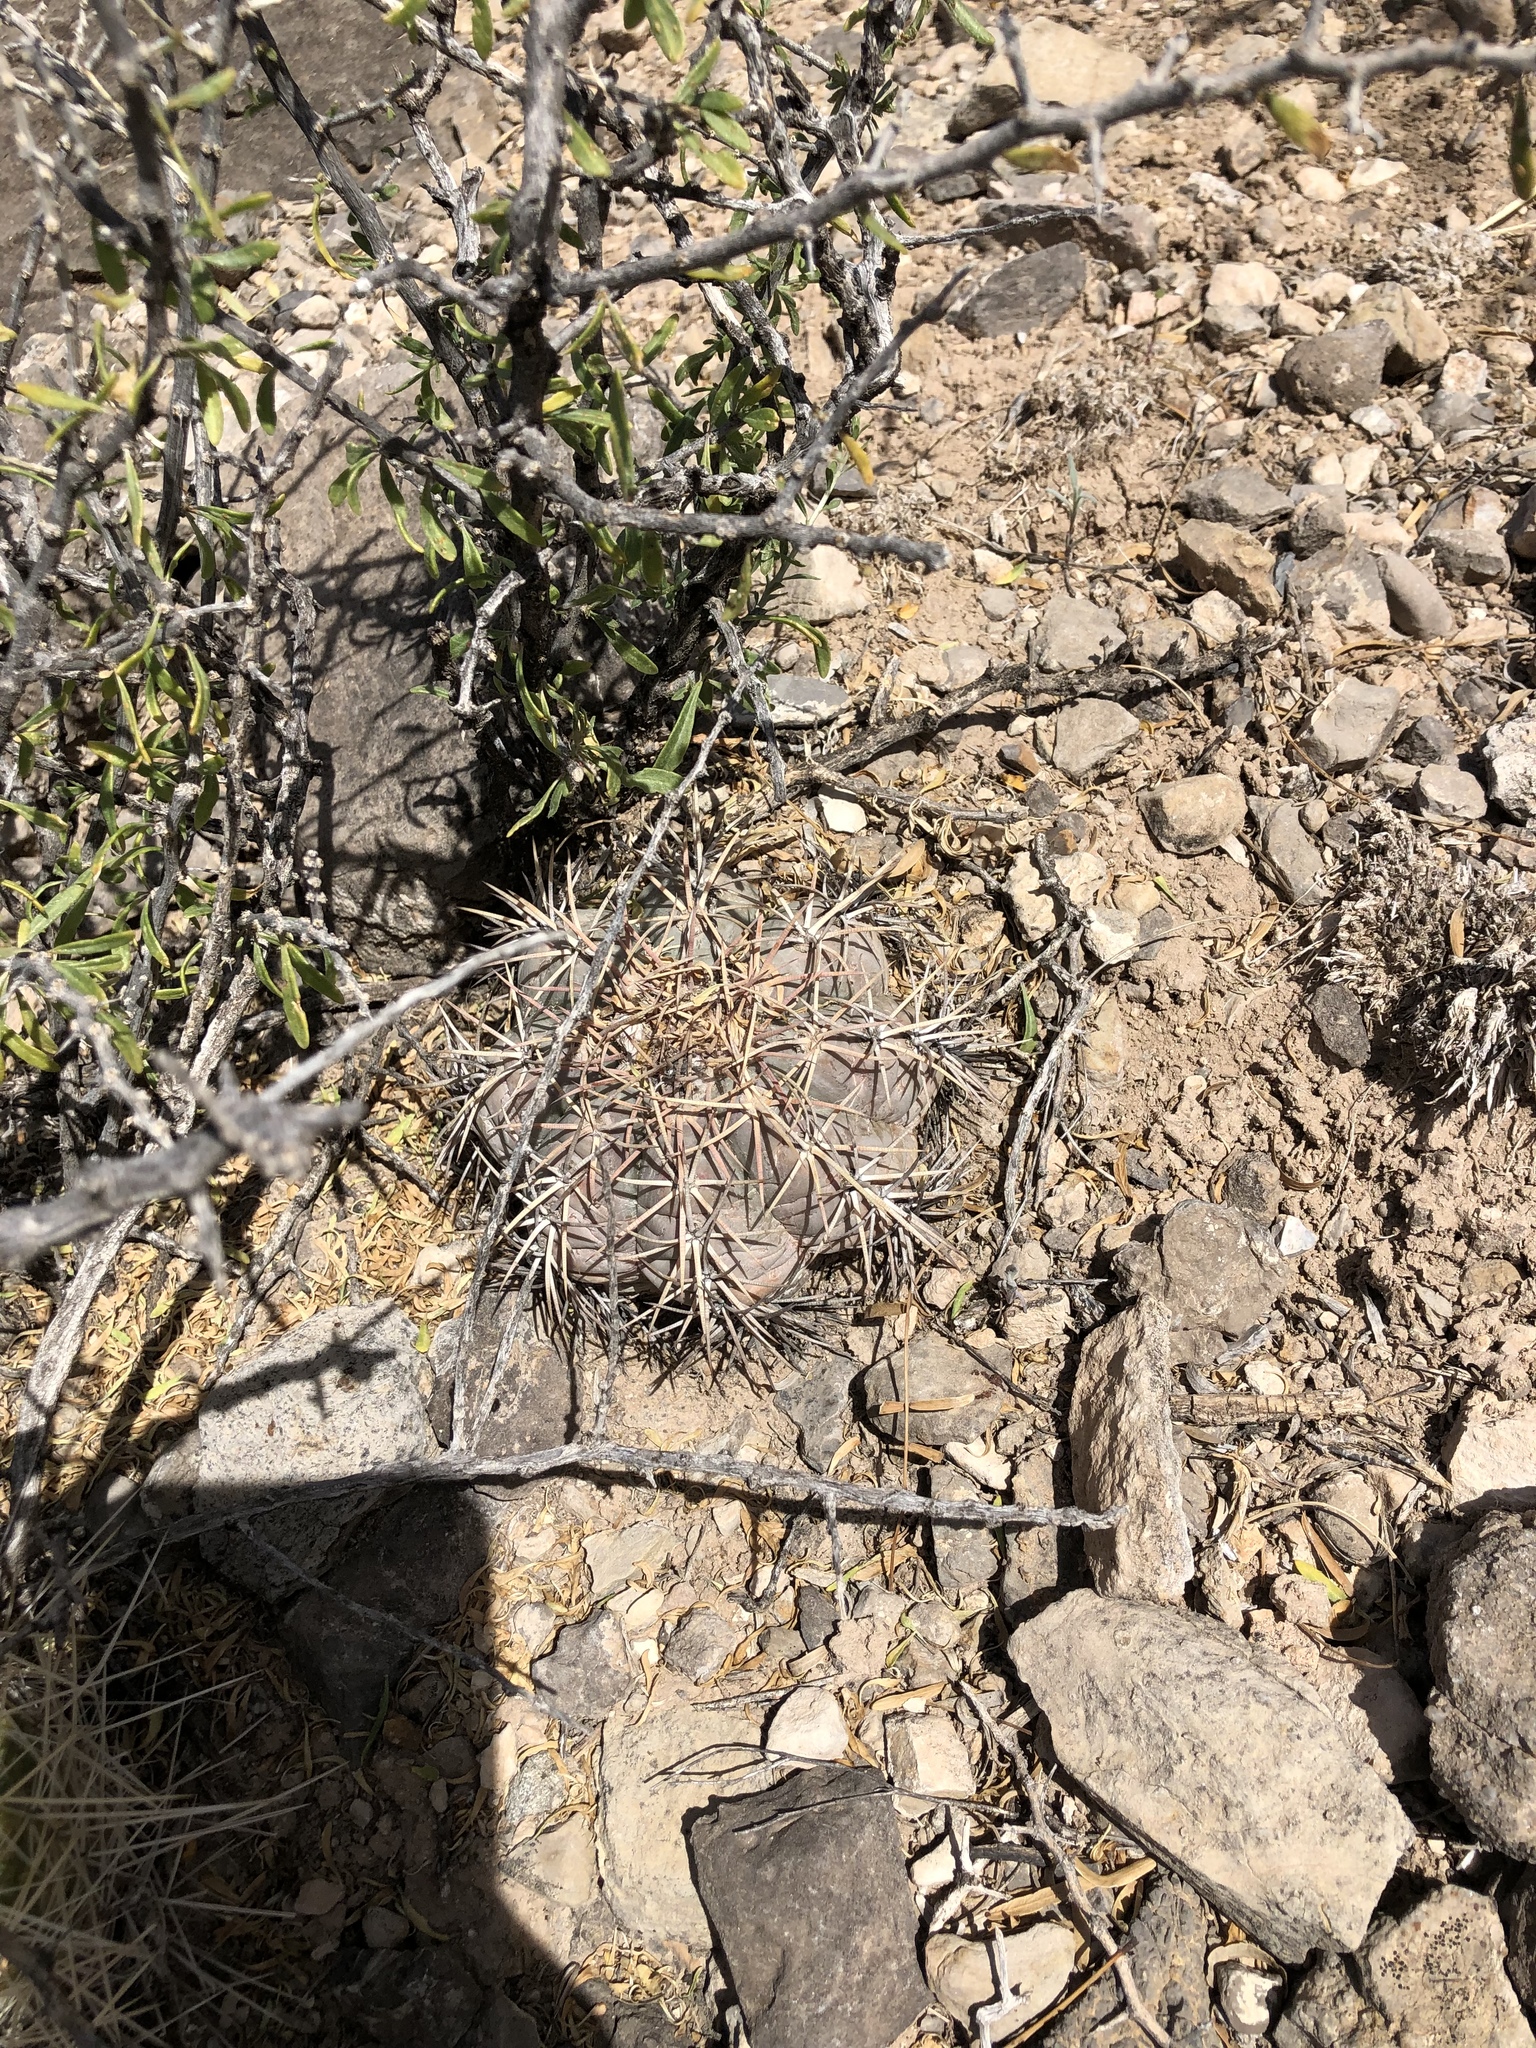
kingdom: Plantae
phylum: Tracheophyta
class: Magnoliopsida
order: Caryophyllales
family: Cactaceae
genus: Echinocactus
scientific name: Echinocactus horizonthalonius
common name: Devilshead
